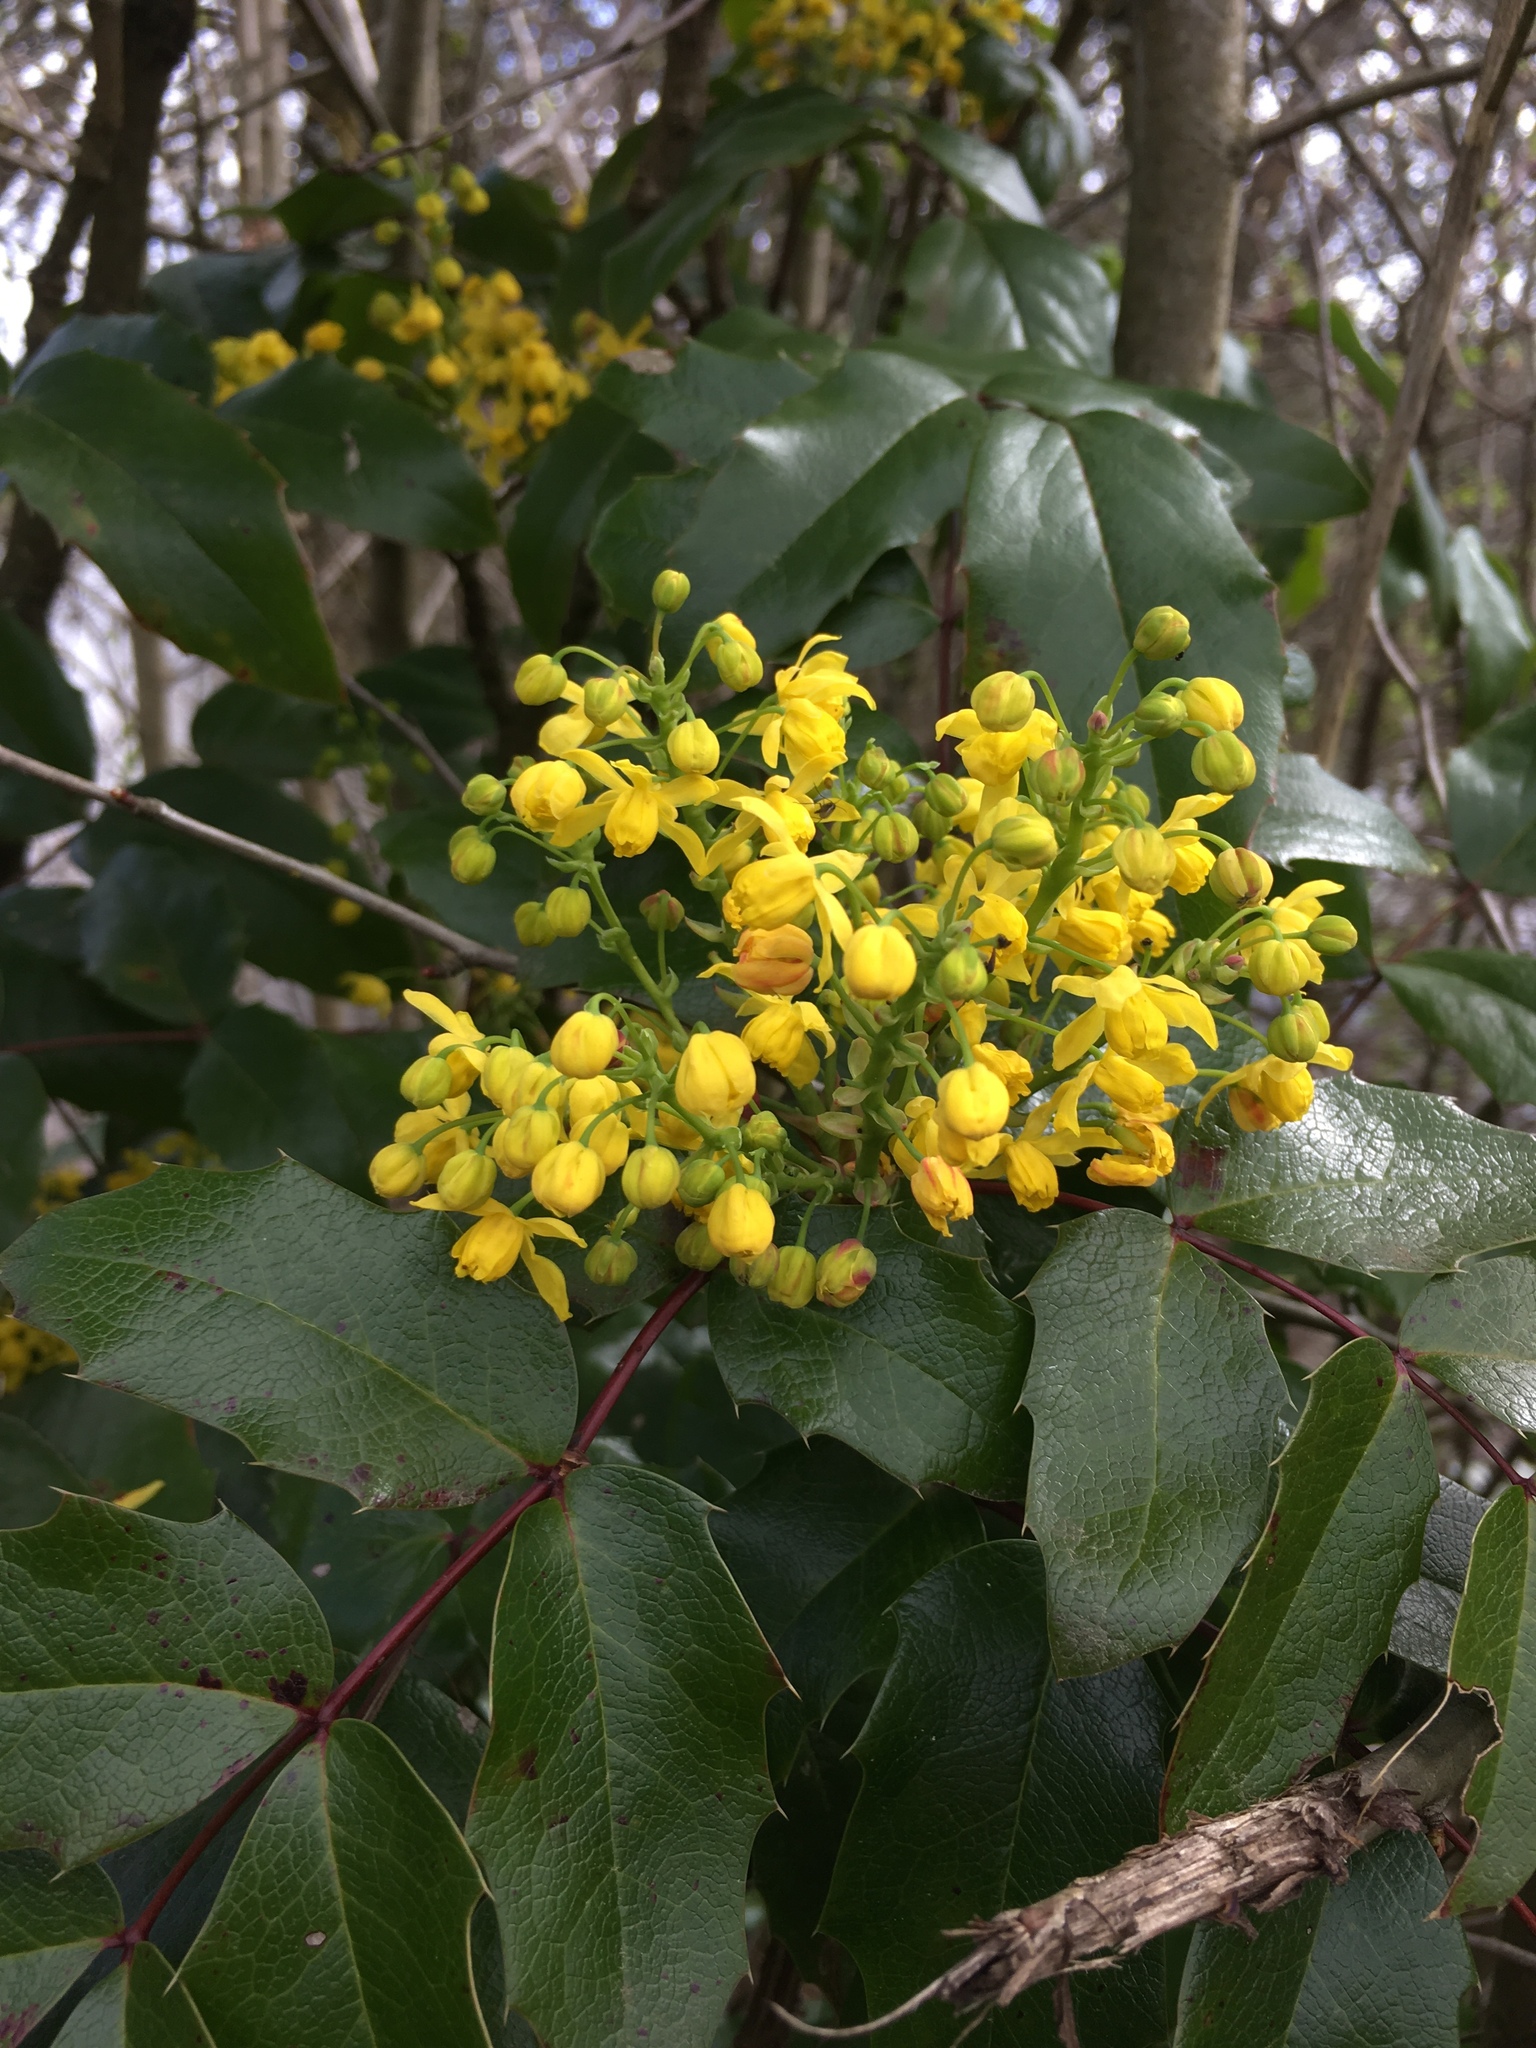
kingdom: Plantae
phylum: Tracheophyta
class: Magnoliopsida
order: Ranunculales
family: Berberidaceae
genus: Mahonia
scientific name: Mahonia aquifolium
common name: Oregon-grape
